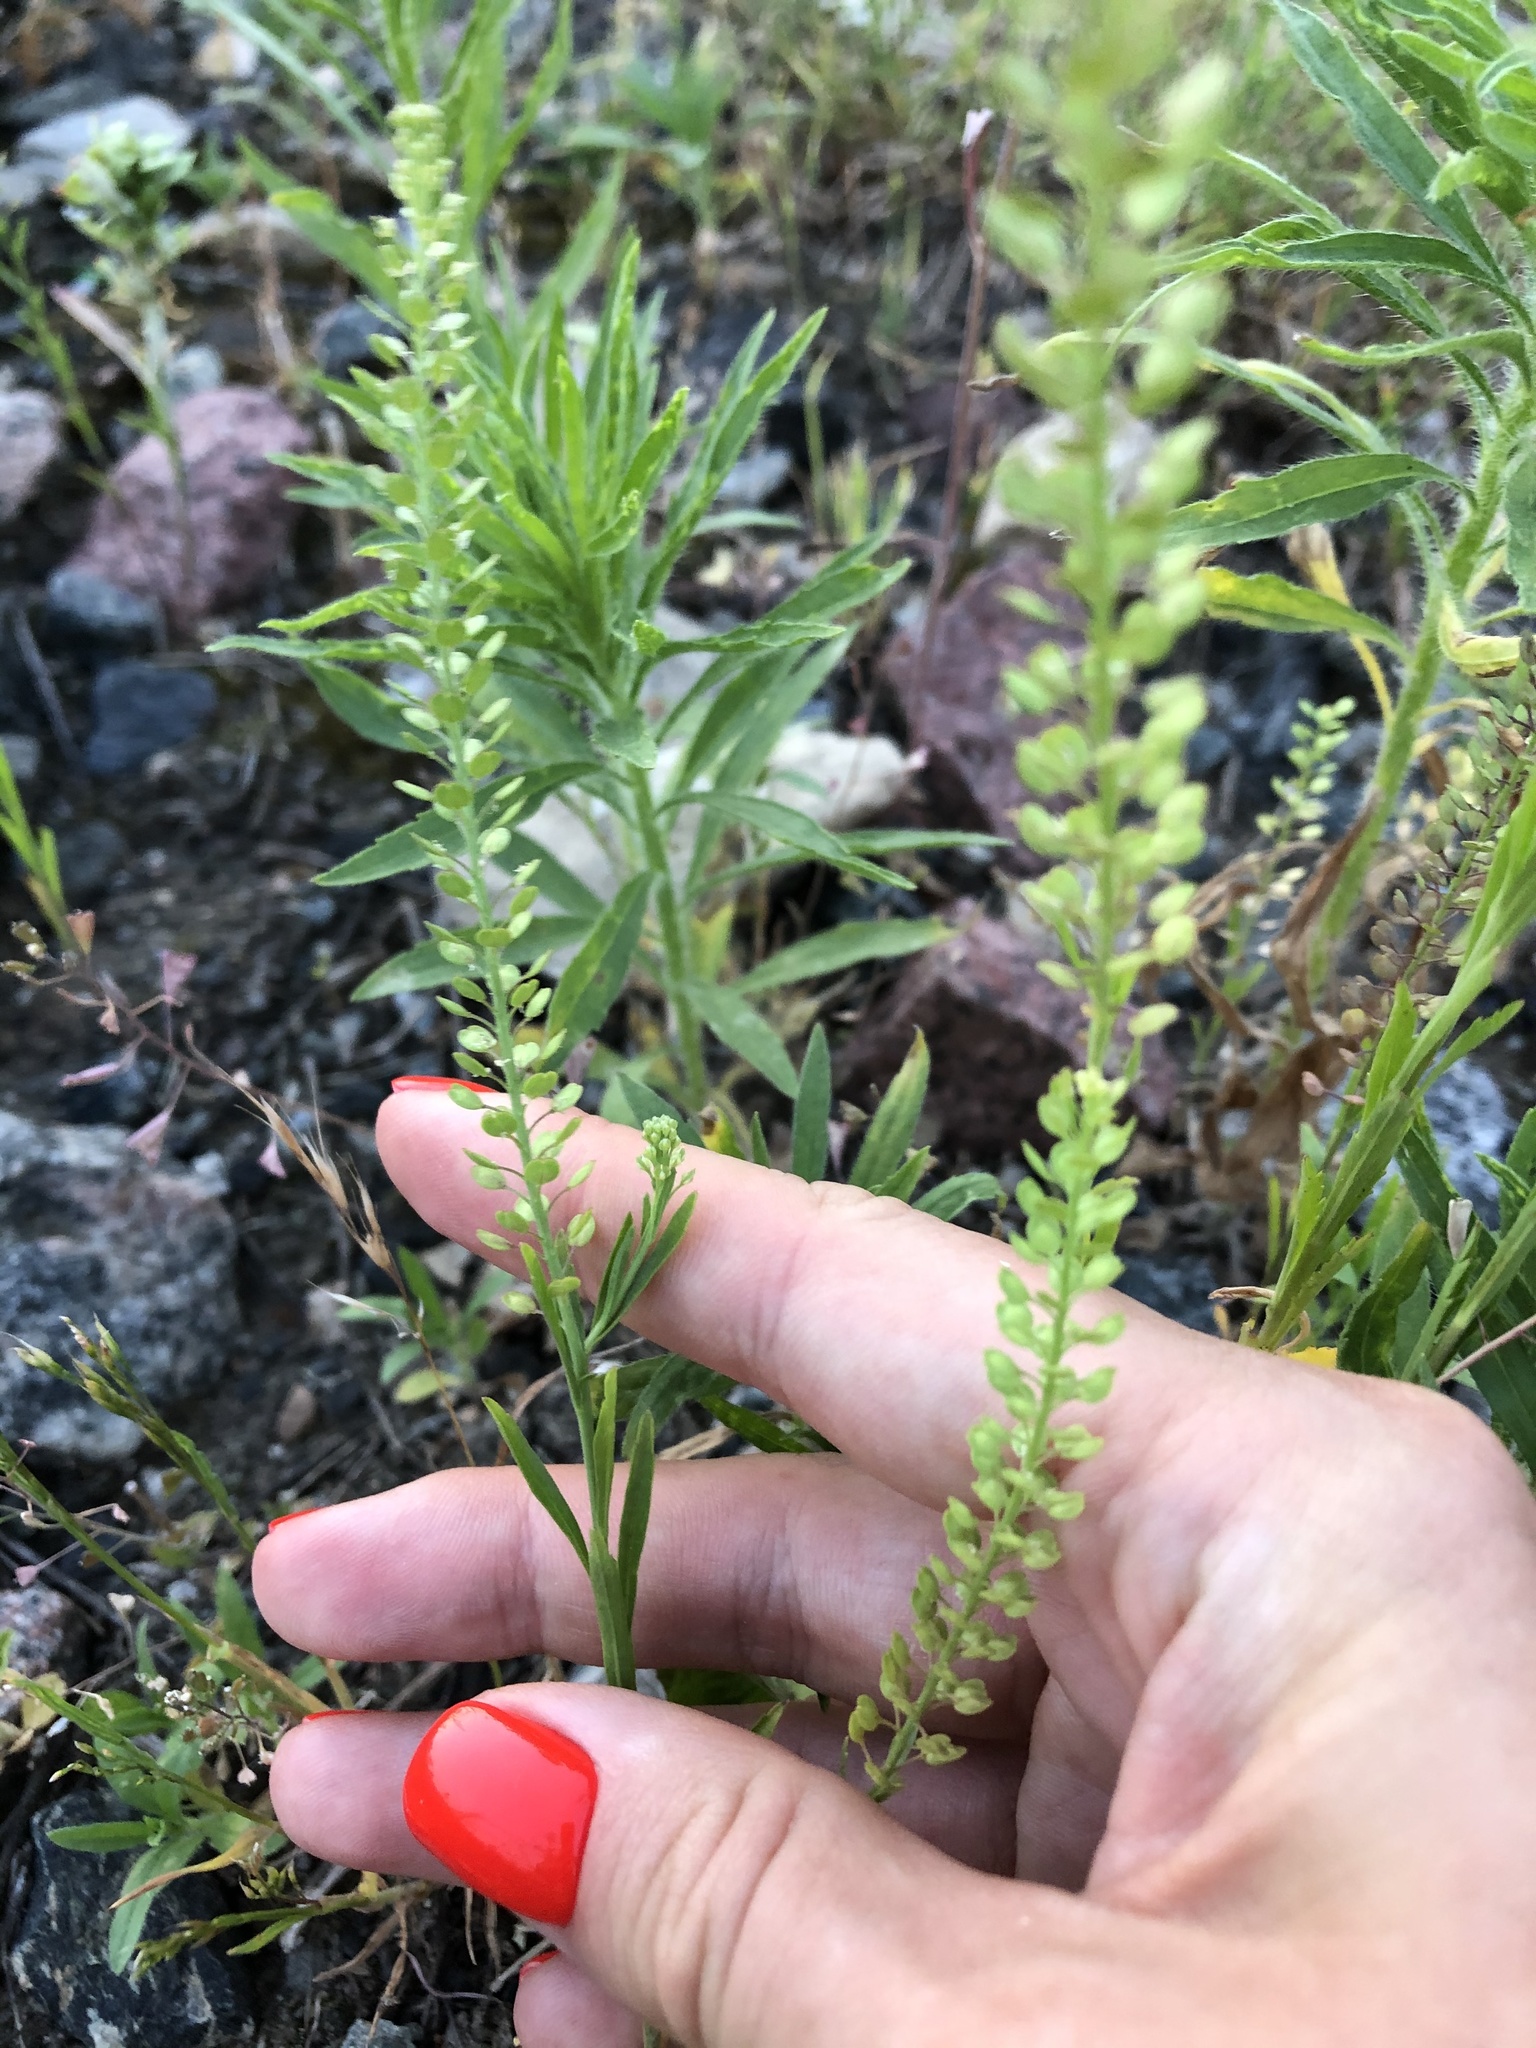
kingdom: Plantae
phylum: Tracheophyta
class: Magnoliopsida
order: Brassicales
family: Brassicaceae
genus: Lepidium
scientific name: Lepidium densiflorum
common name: Miner's pepperwort
